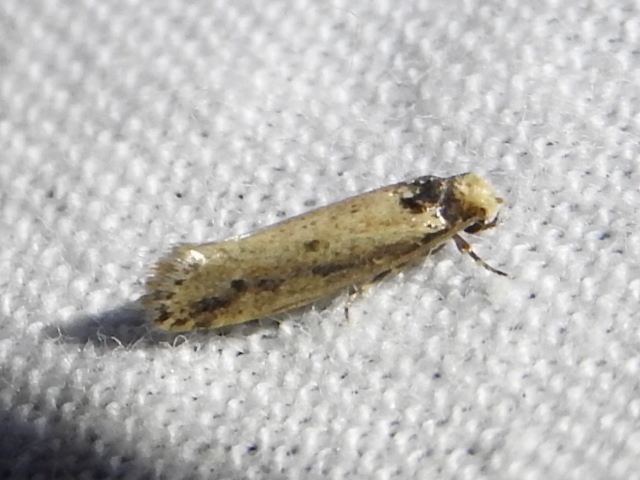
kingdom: Animalia
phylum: Arthropoda
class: Insecta
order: Lepidoptera
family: Tineidae
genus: Tinea
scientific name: Tinea apicimaculella
